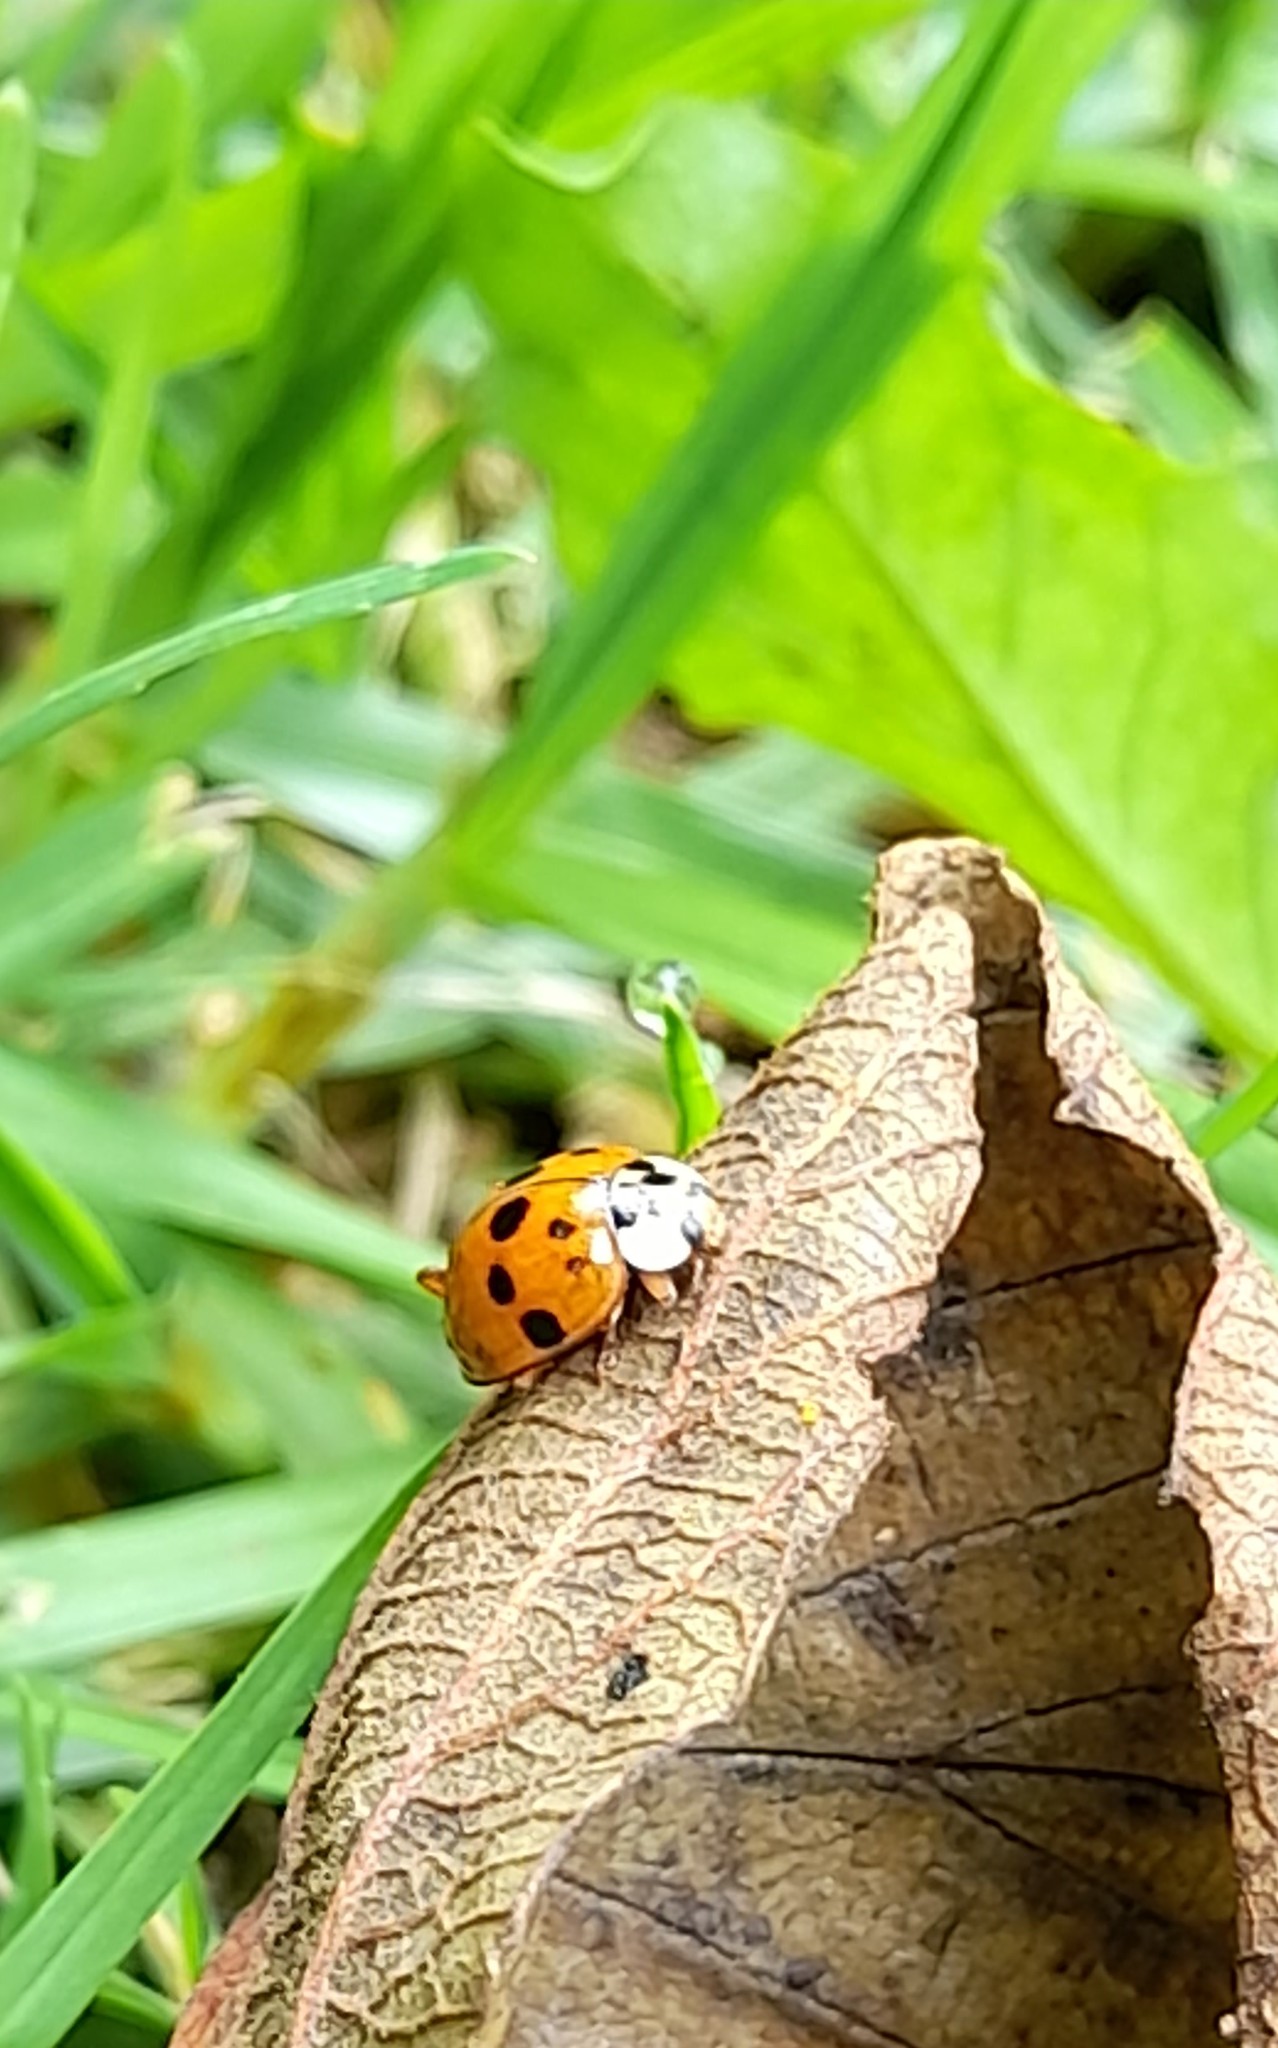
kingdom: Animalia
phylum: Arthropoda
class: Insecta
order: Coleoptera
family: Coccinellidae
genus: Harmonia
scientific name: Harmonia axyridis
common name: Harlequin ladybird
